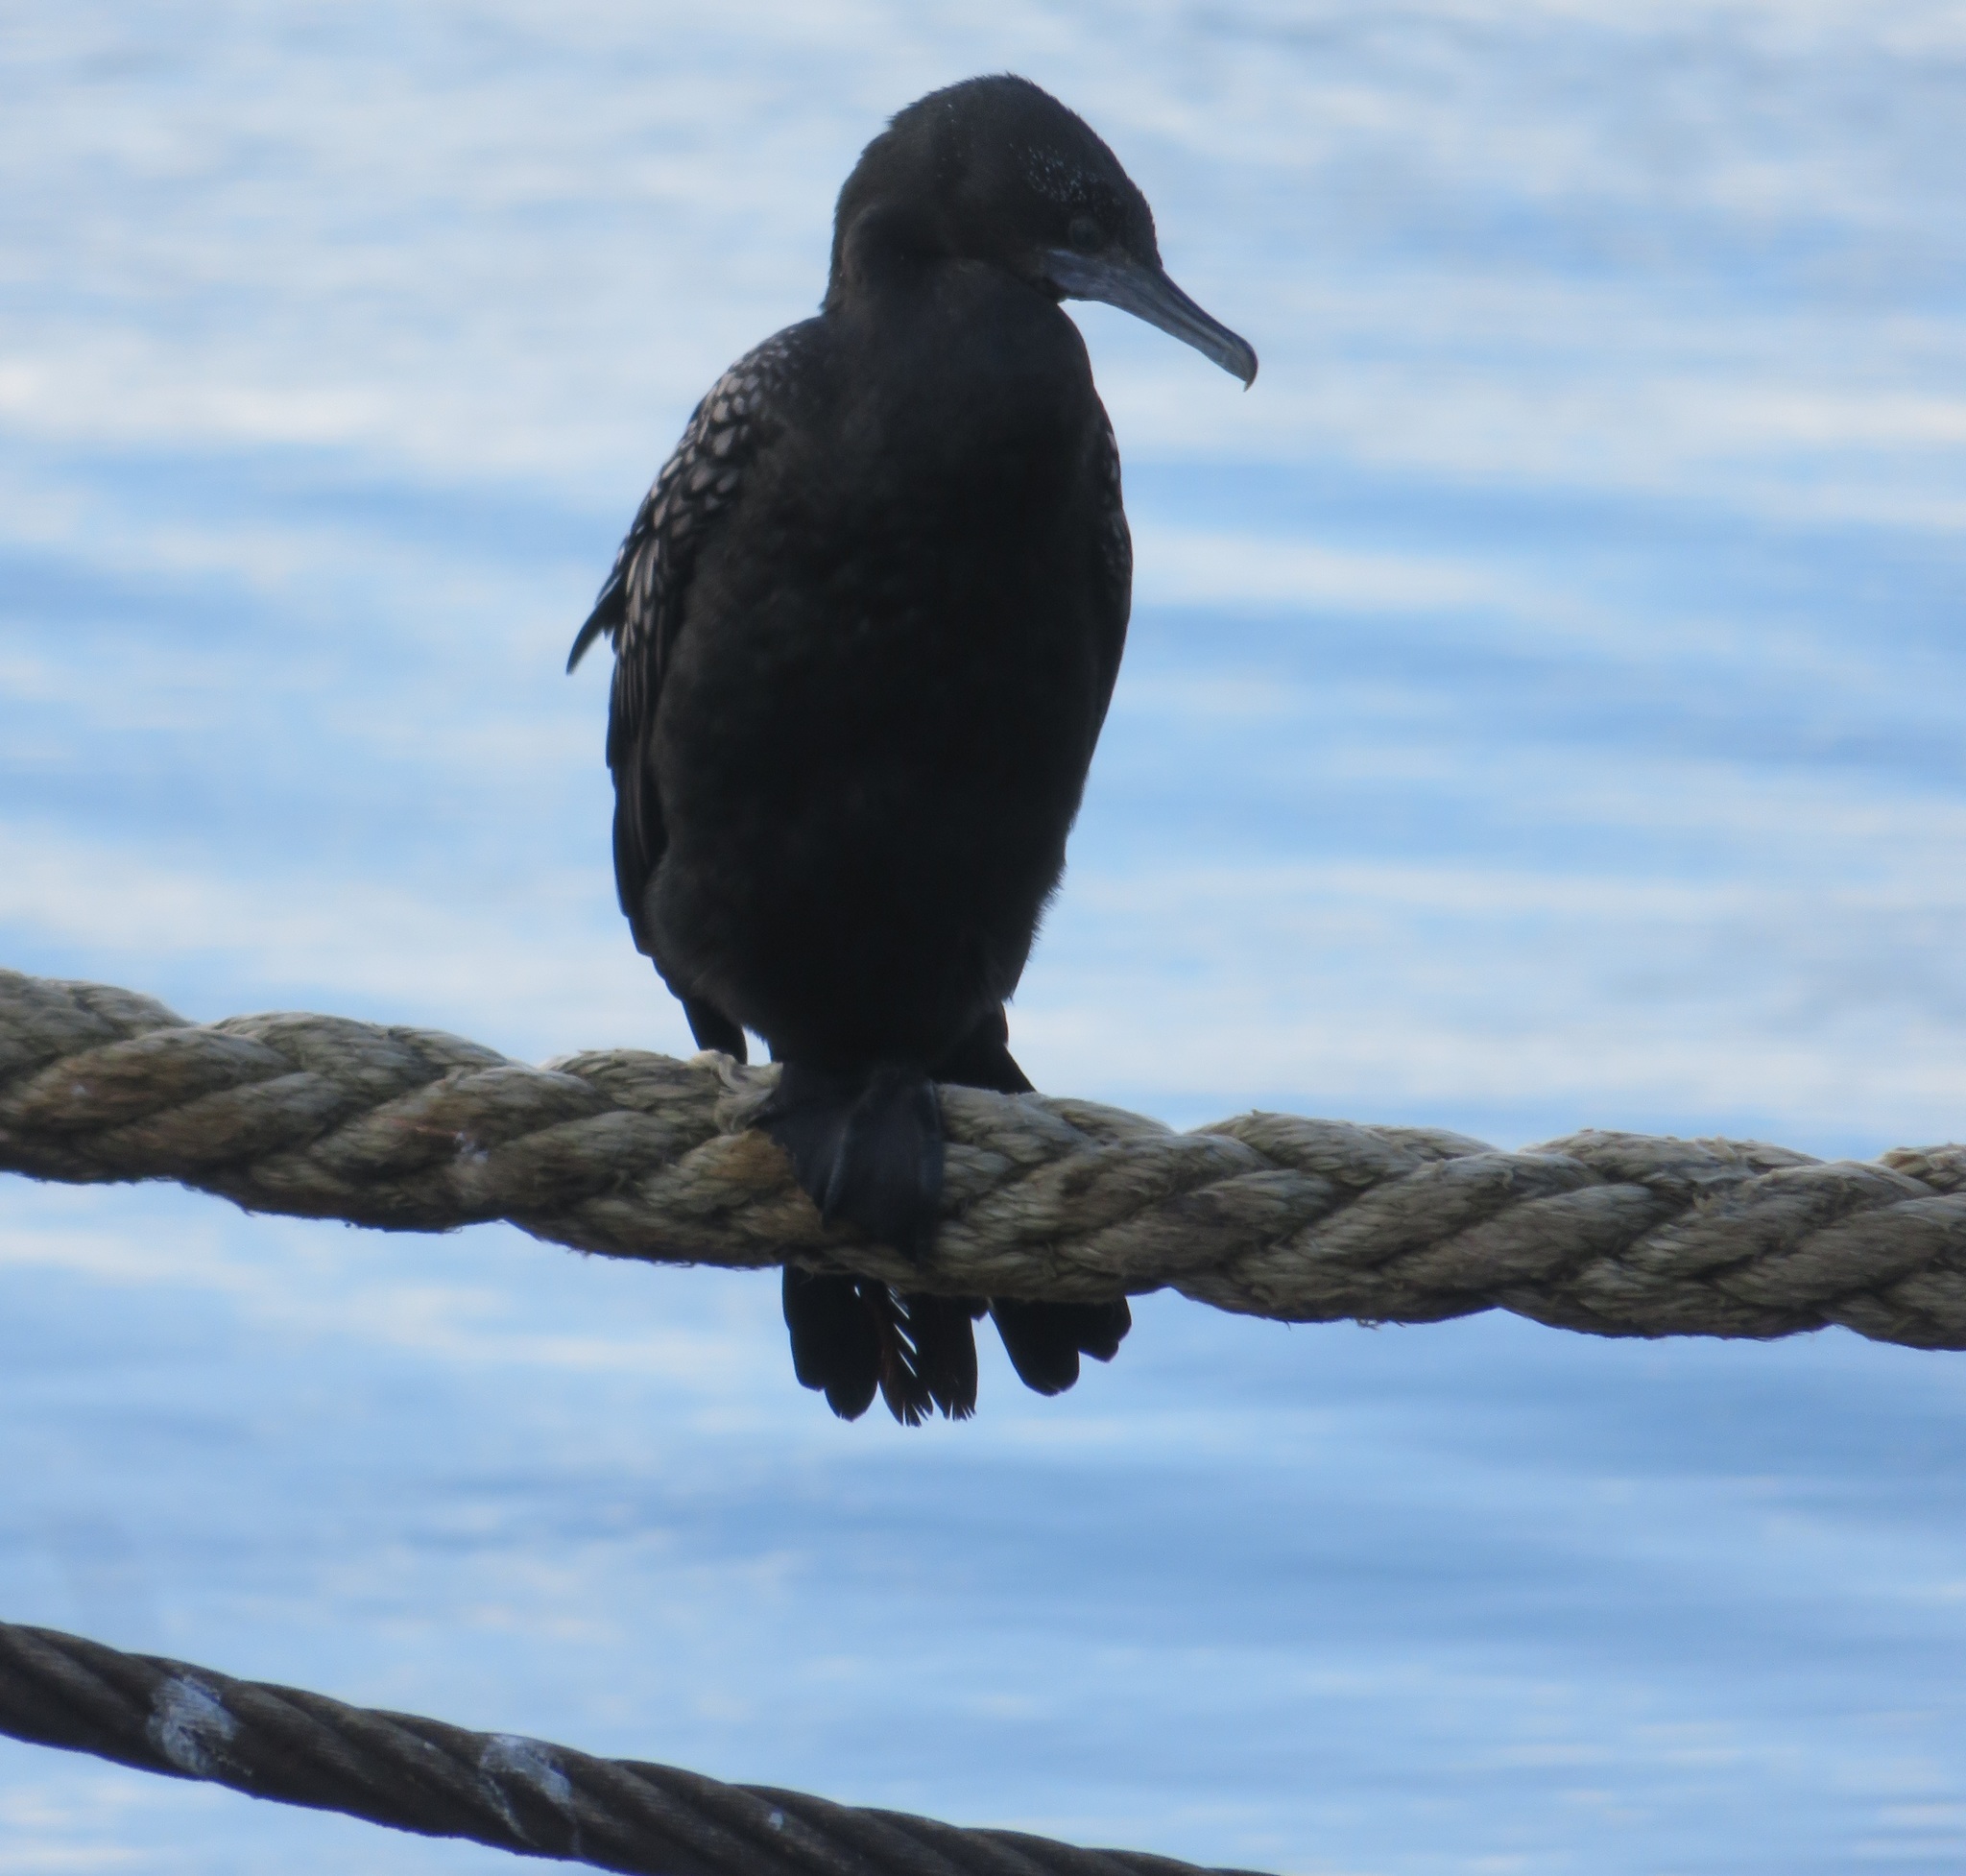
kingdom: Animalia
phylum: Chordata
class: Aves
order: Suliformes
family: Phalacrocoracidae
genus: Phalacrocorax
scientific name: Phalacrocorax sulcirostris
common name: Little black cormorant
